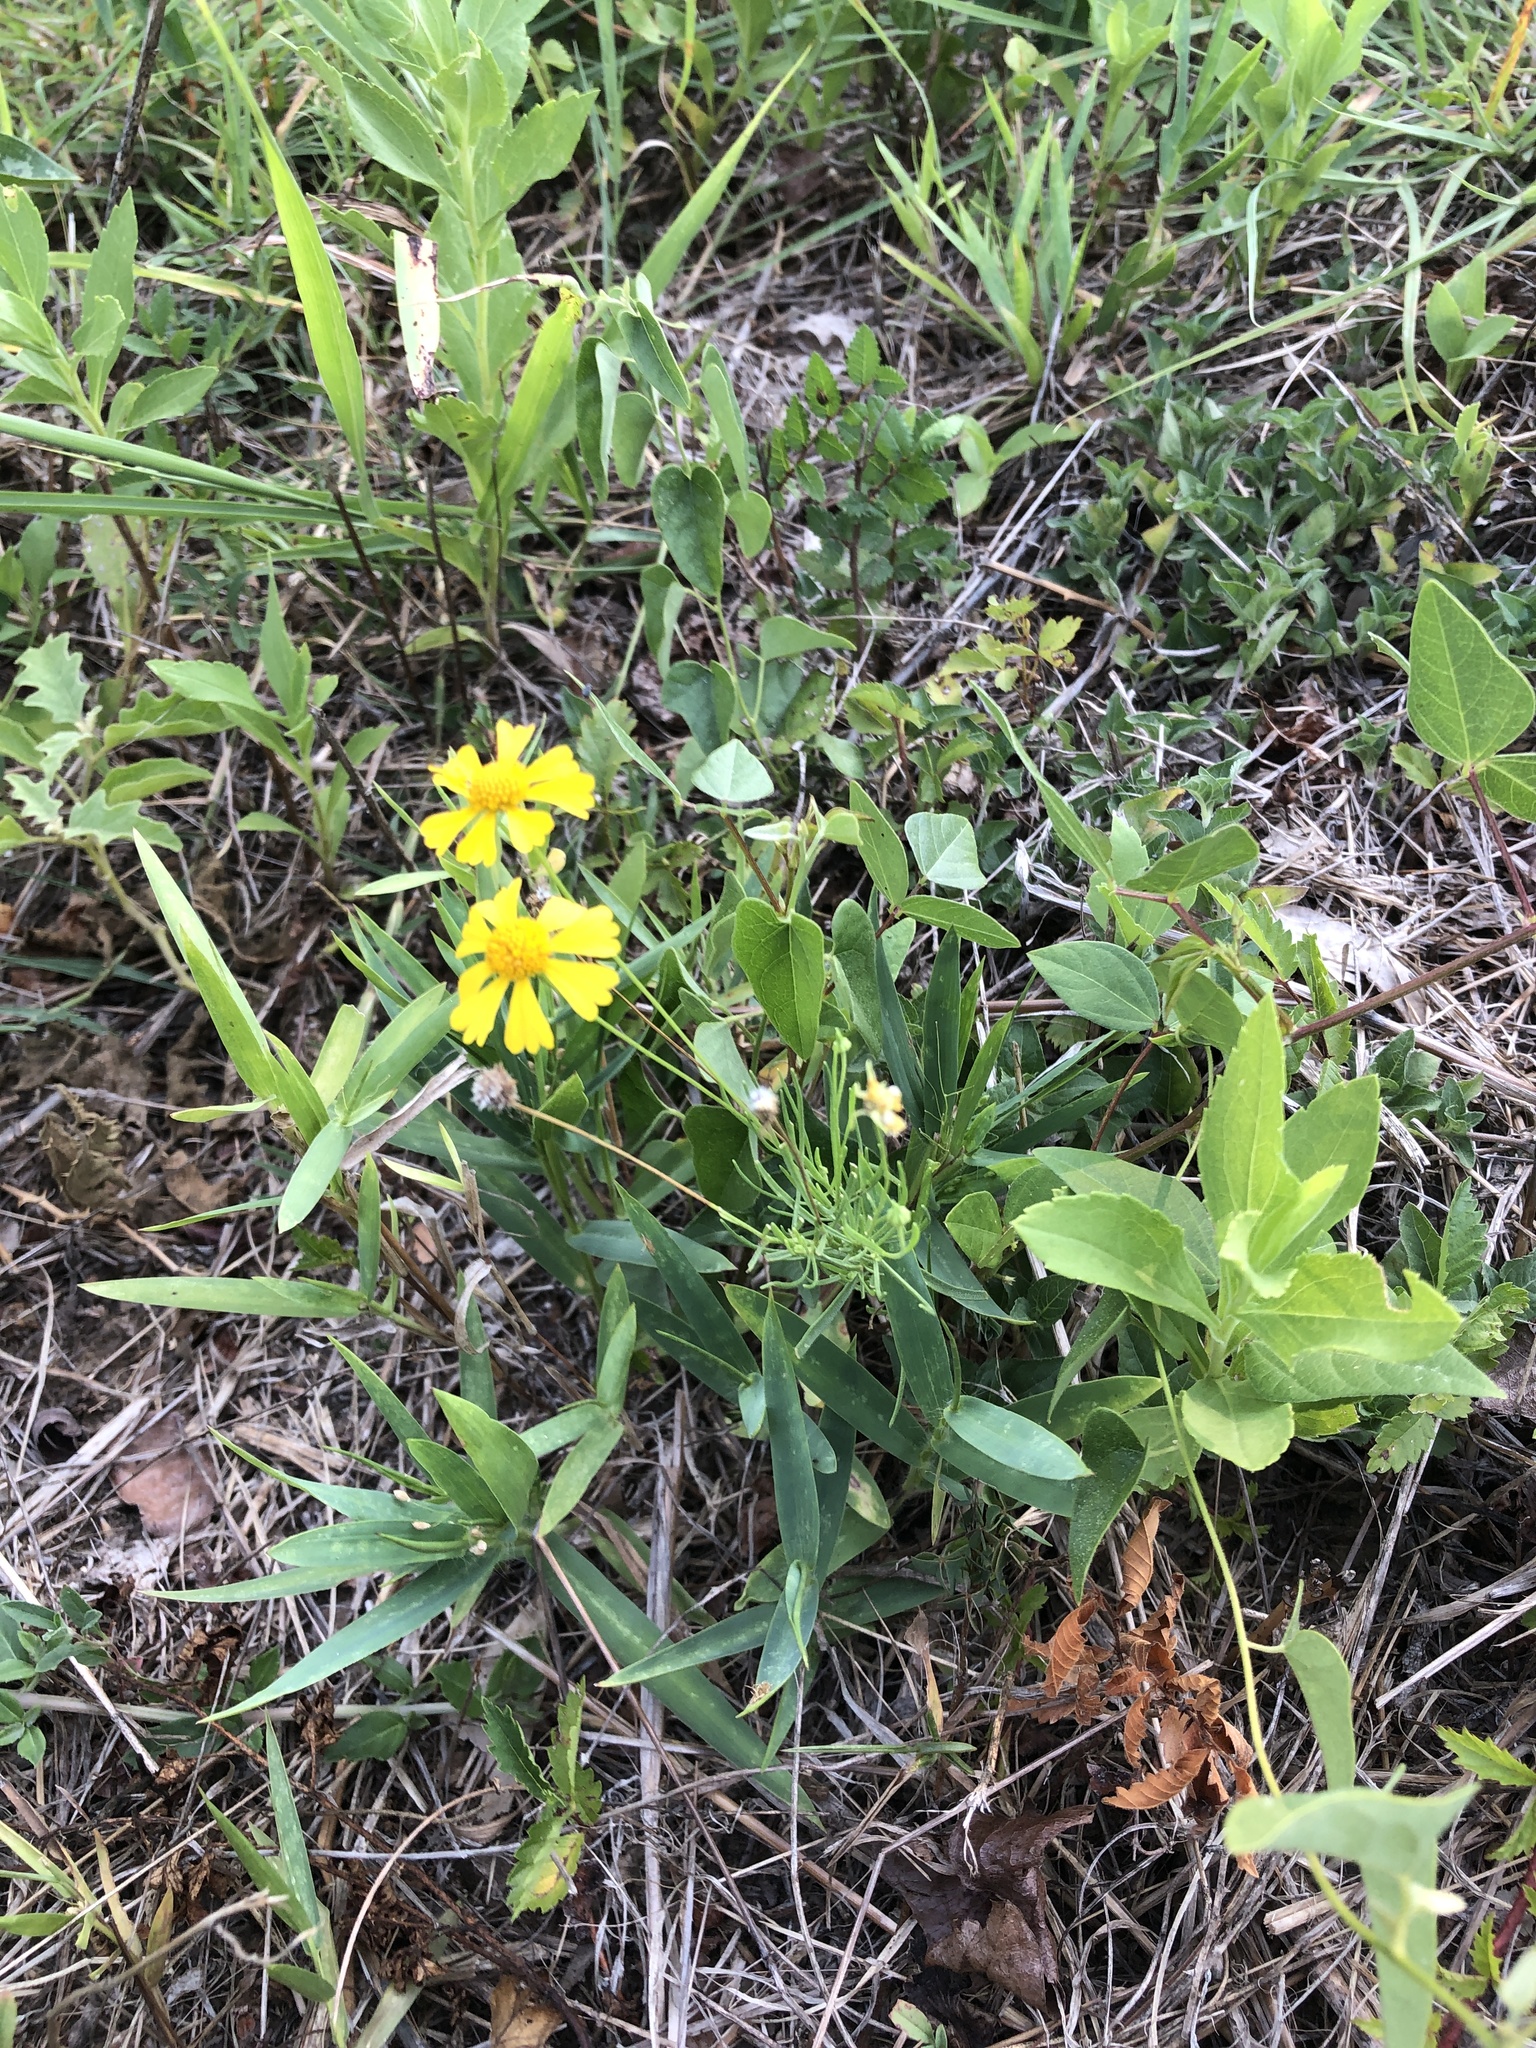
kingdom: Plantae
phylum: Tracheophyta
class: Magnoliopsida
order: Asterales
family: Asteraceae
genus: Helenium
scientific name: Helenium amarum
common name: Bitter sneezeweed
